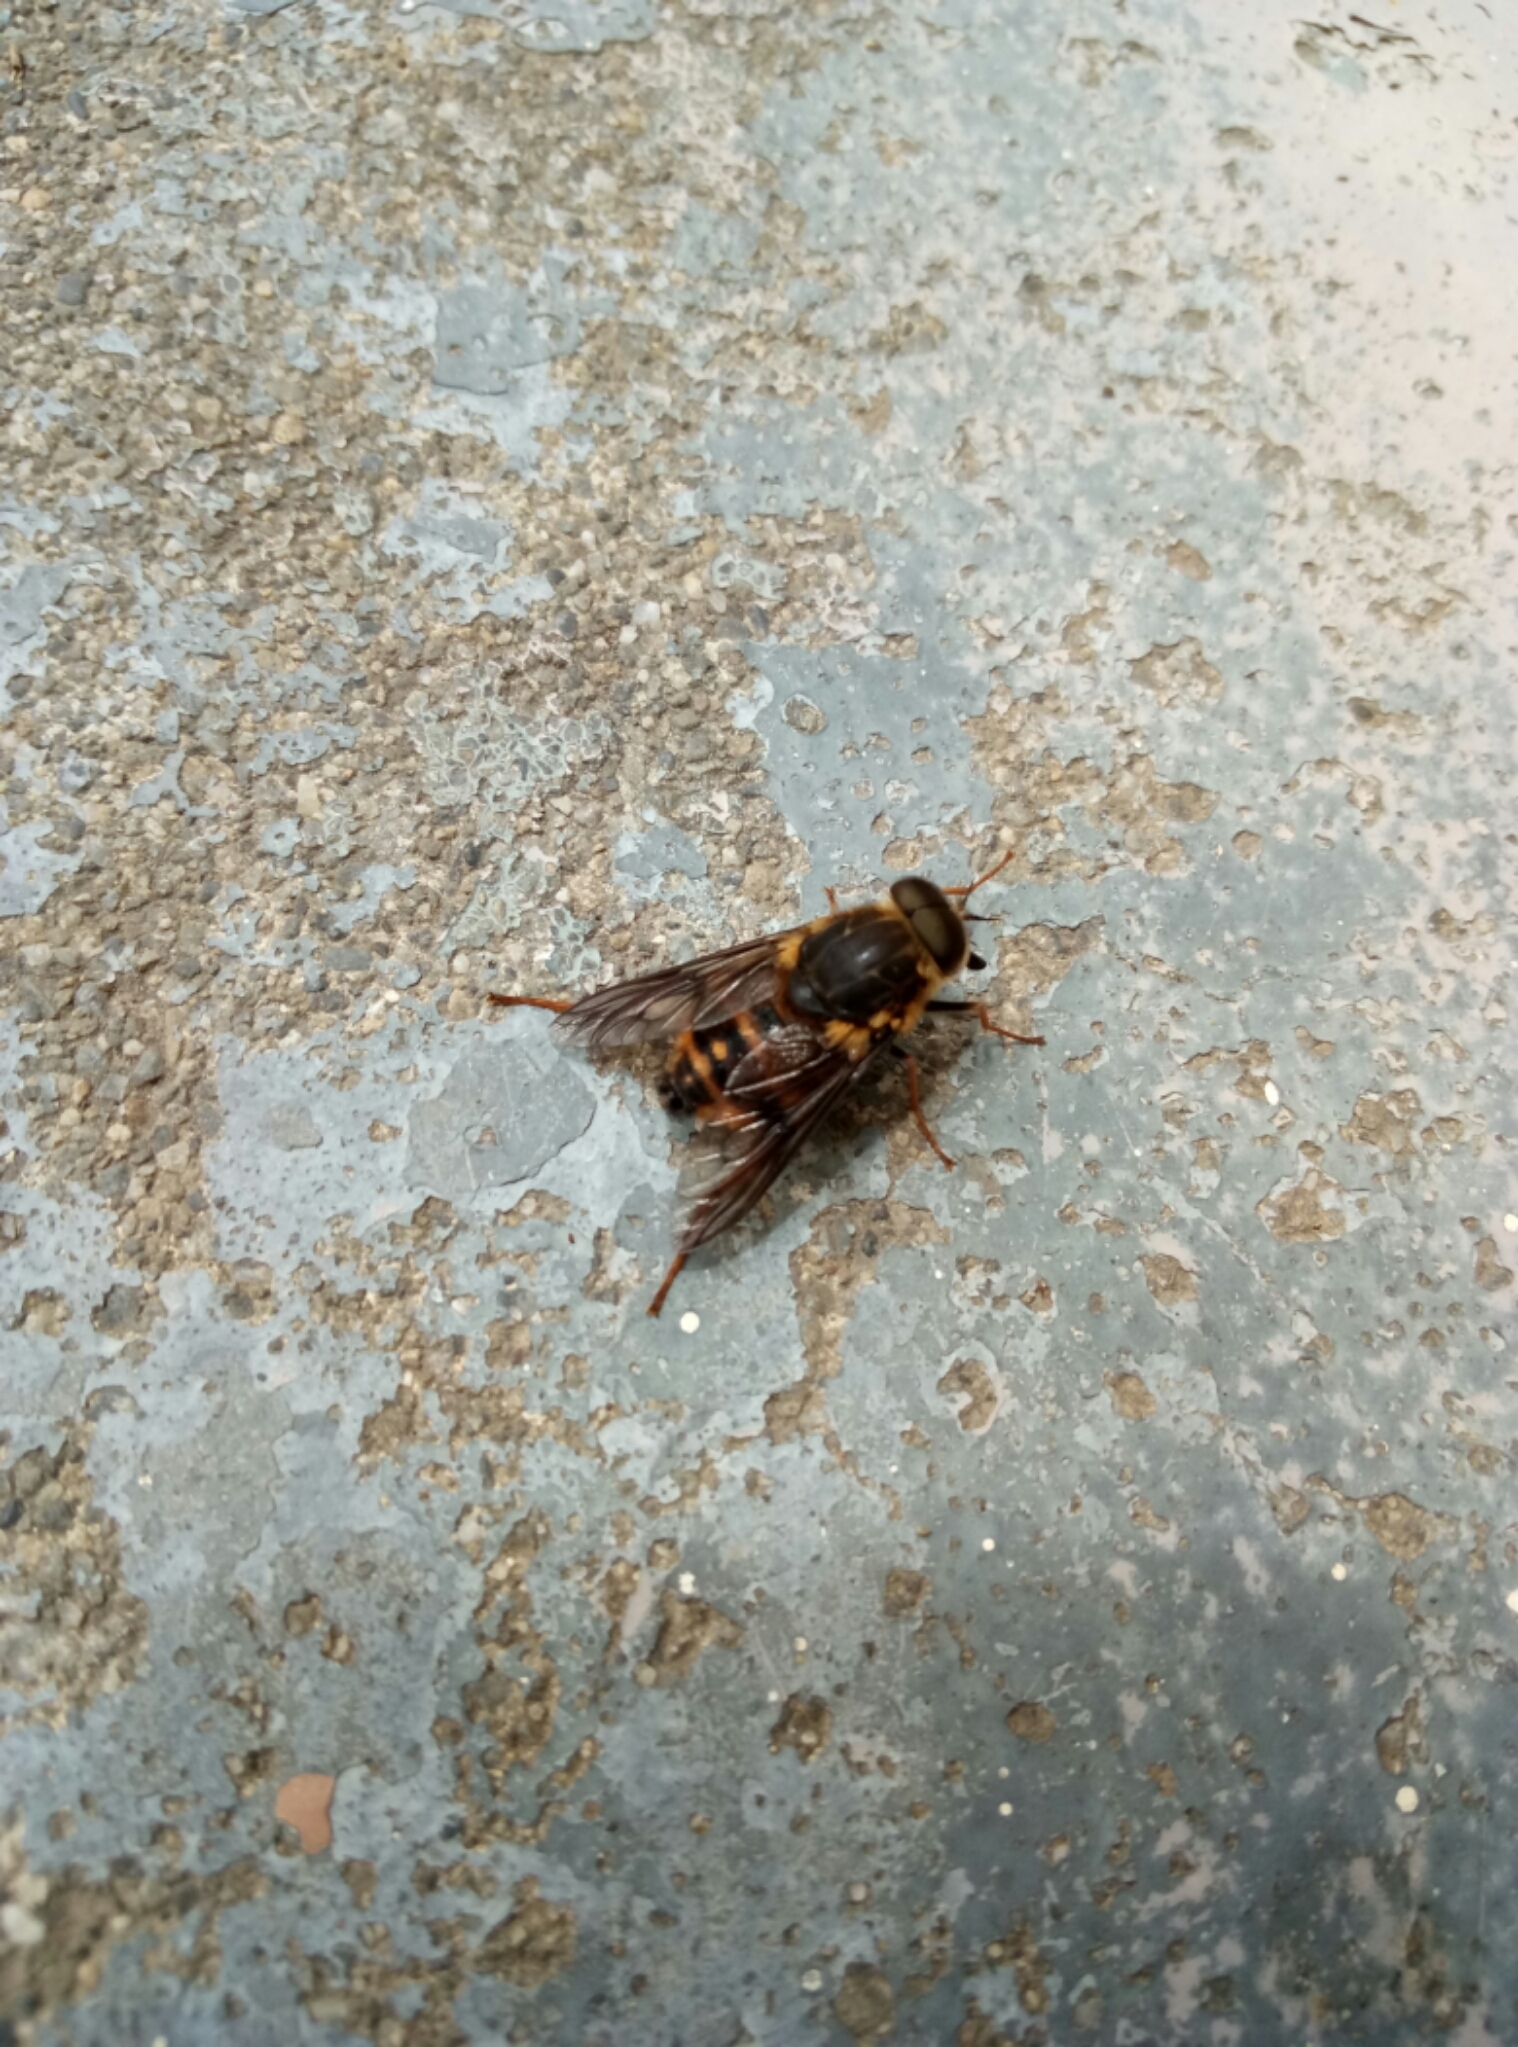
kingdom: Animalia
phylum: Arthropoda
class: Insecta
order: Diptera
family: Tabanidae
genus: Scaptia
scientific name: Scaptia
